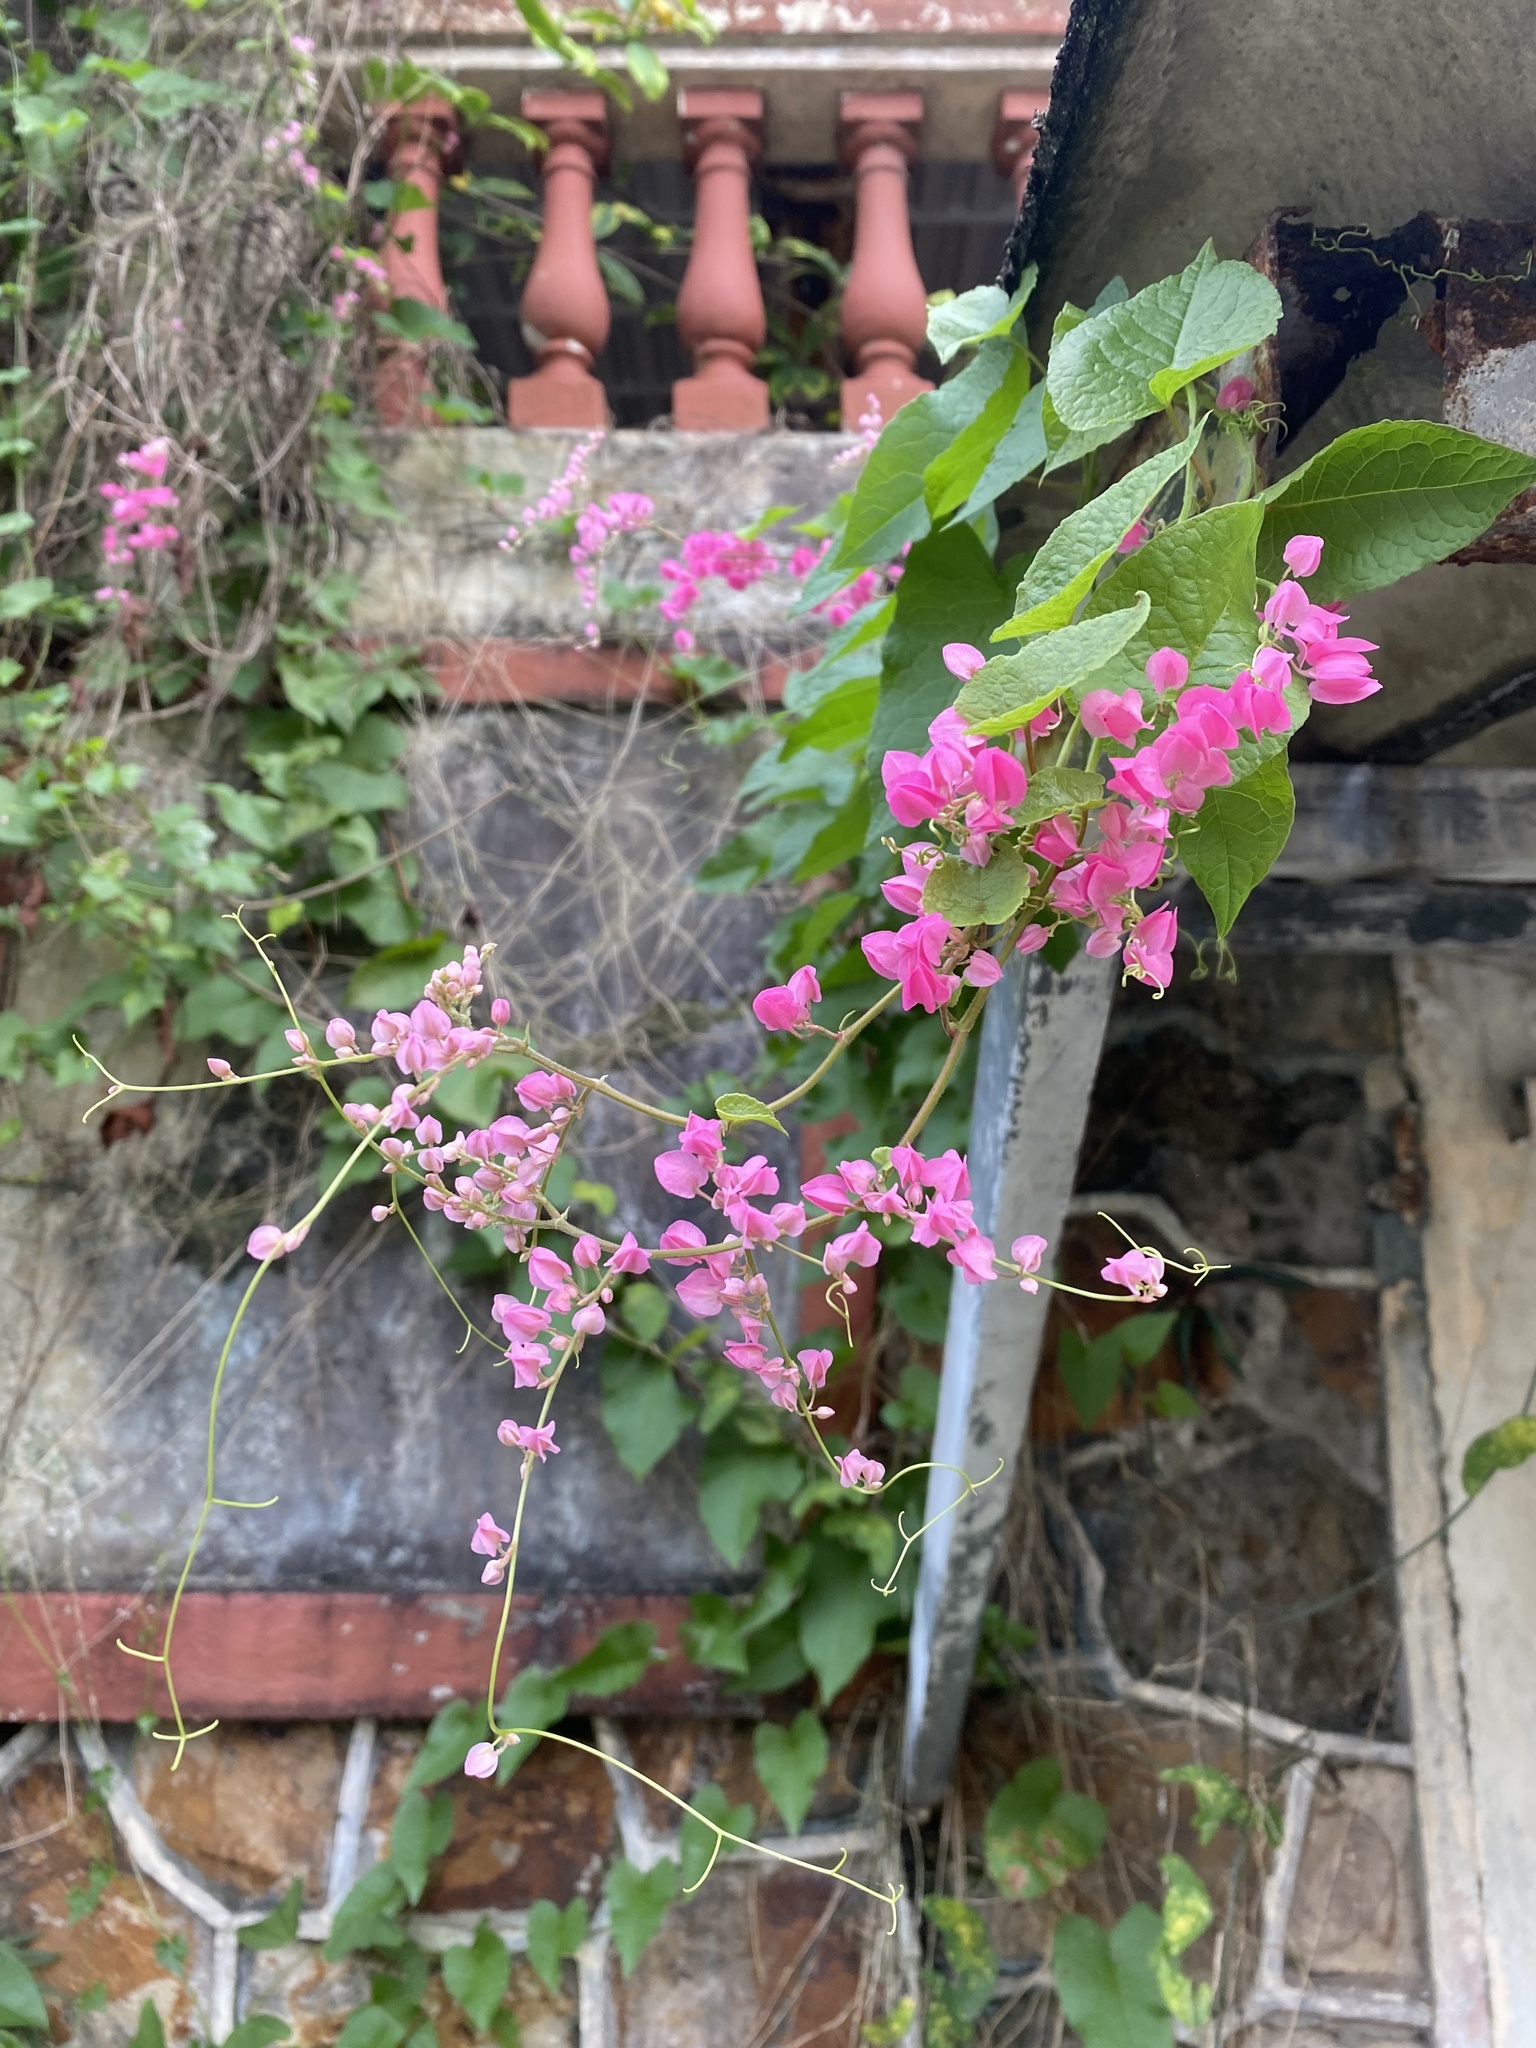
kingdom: Plantae
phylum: Tracheophyta
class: Magnoliopsida
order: Caryophyllales
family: Polygonaceae
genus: Antigonon
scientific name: Antigonon leptopus
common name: Coral vine
